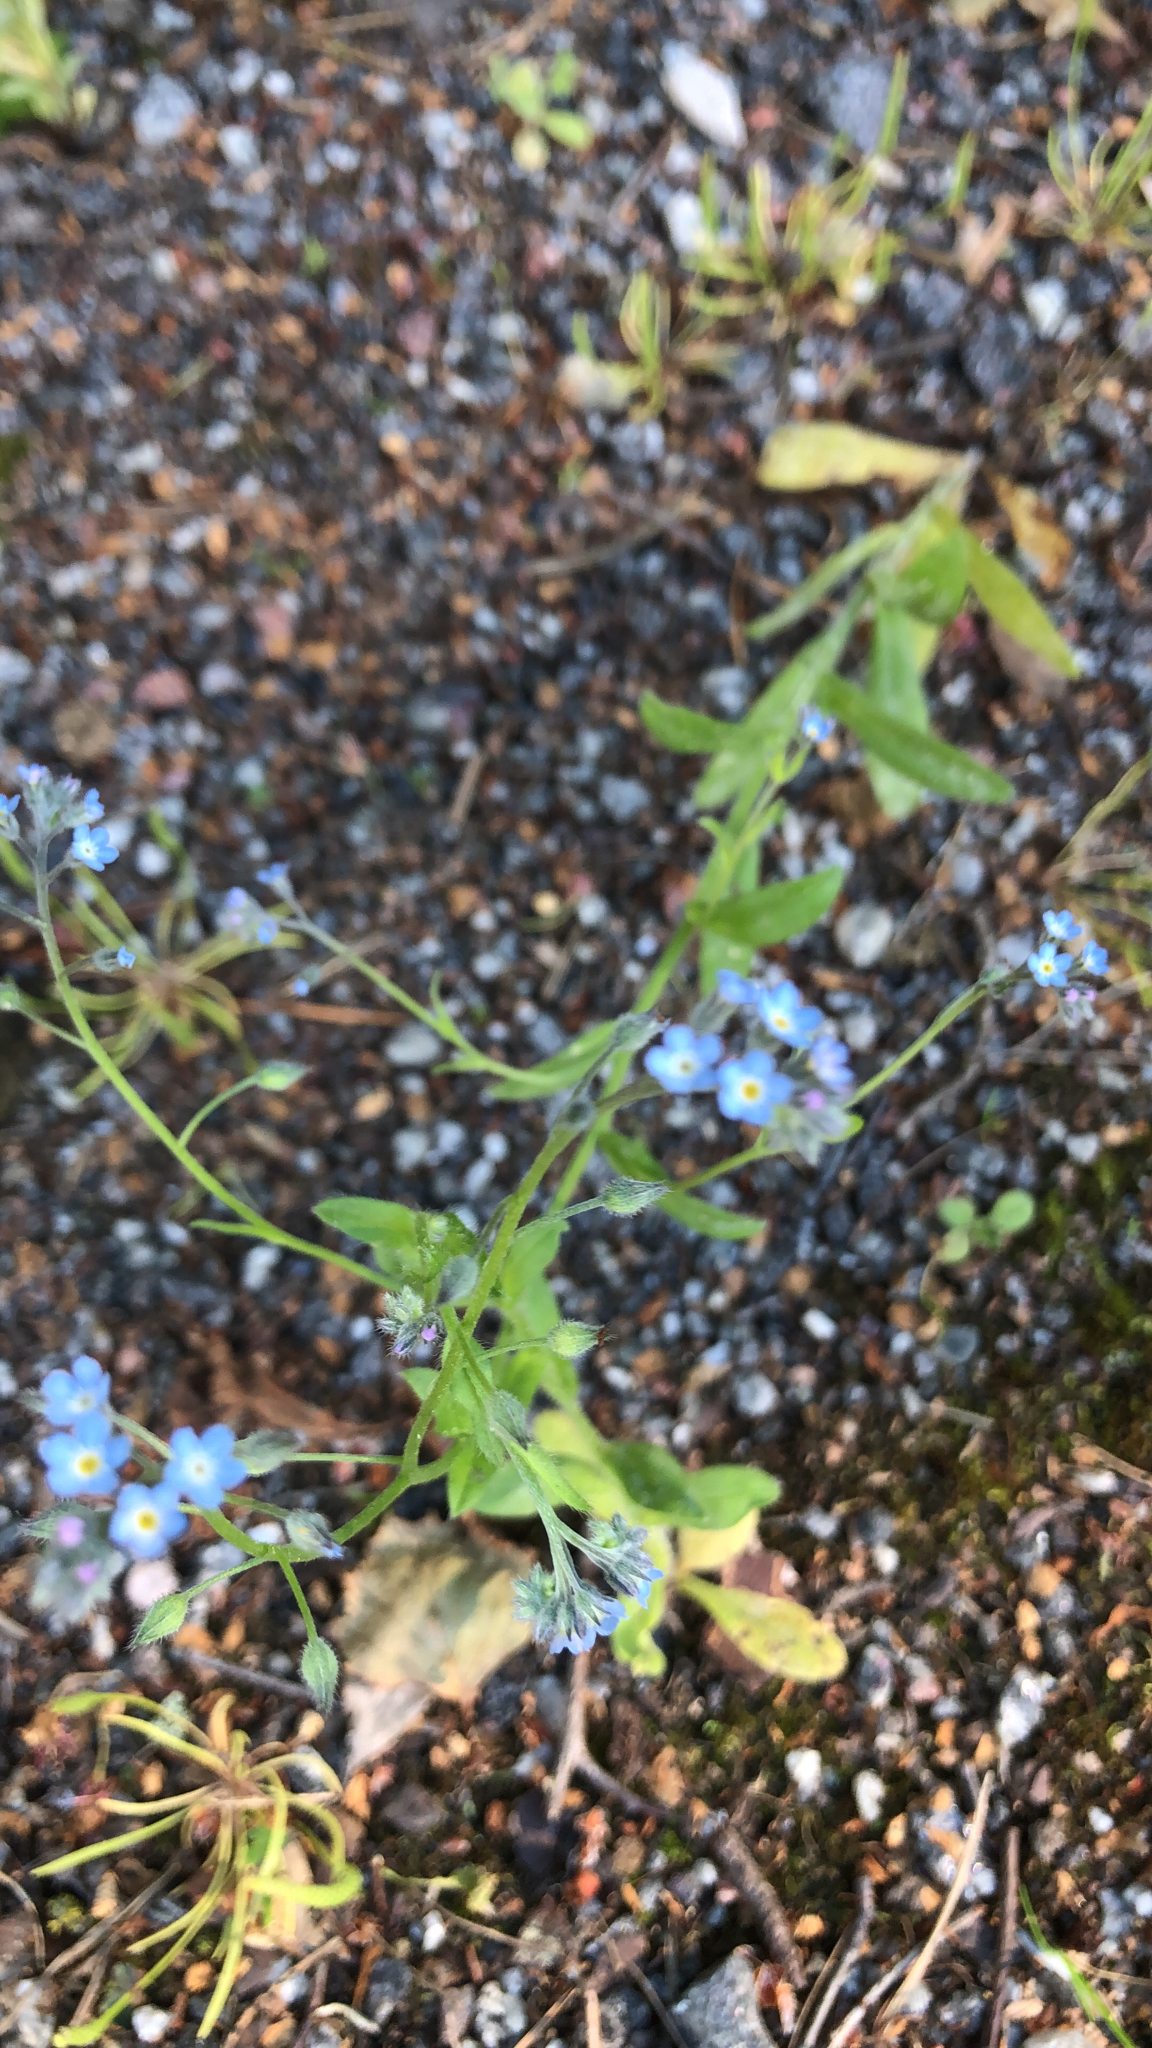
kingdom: Plantae
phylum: Tracheophyta
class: Magnoliopsida
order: Boraginales
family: Boraginaceae
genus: Myosotis
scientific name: Myosotis arvensis
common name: Field forget-me-not
